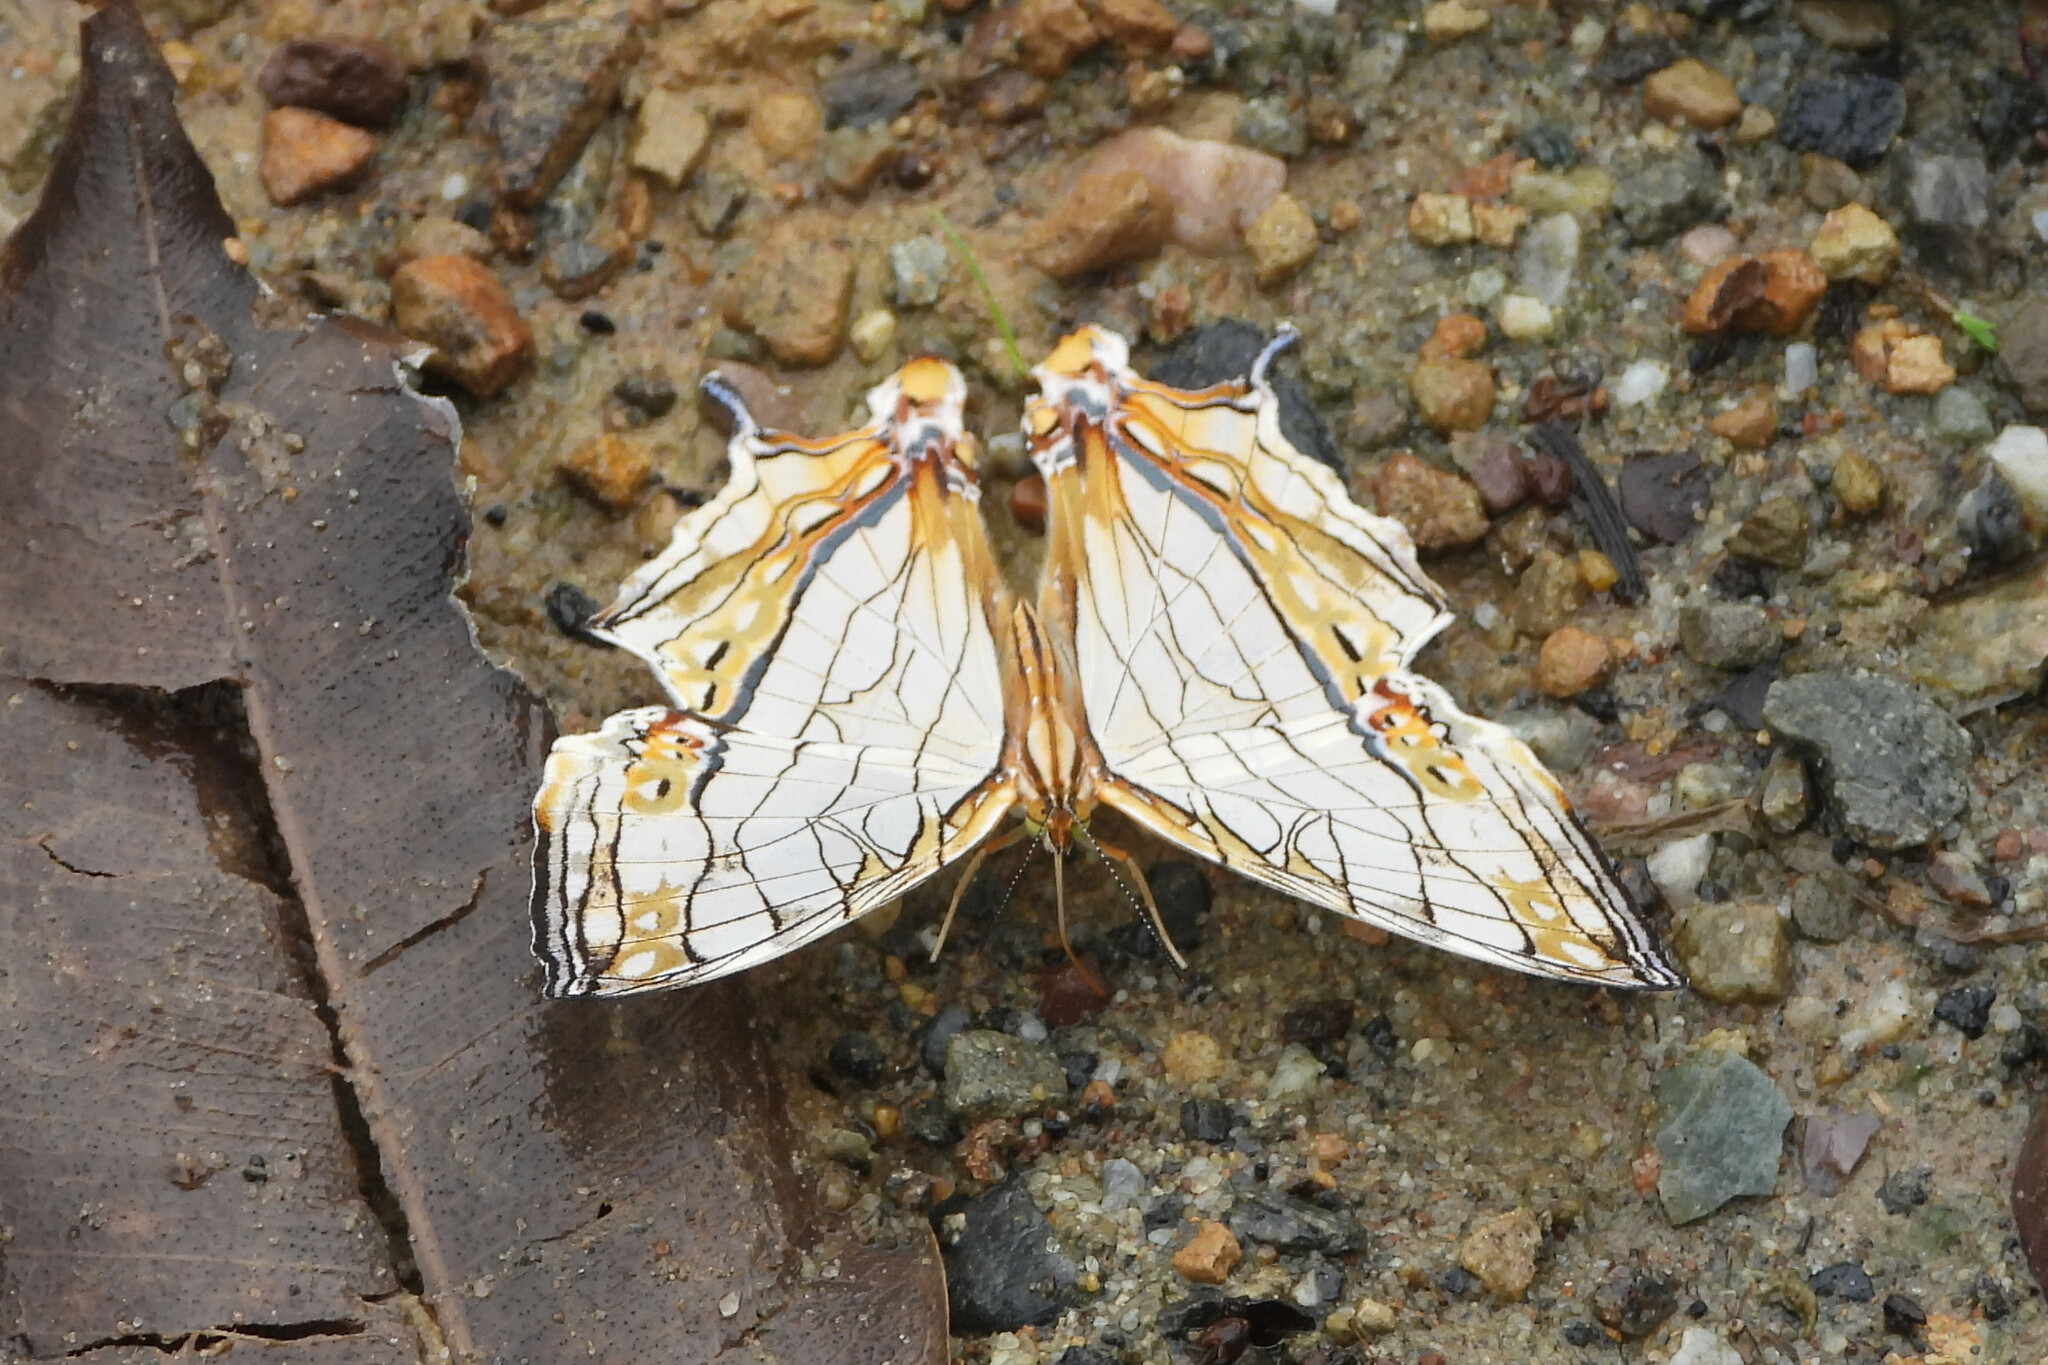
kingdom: Animalia
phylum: Arthropoda
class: Insecta
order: Lepidoptera
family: Nymphalidae
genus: Cyrestis
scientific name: Cyrestis thyodamas
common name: Common mapwing
